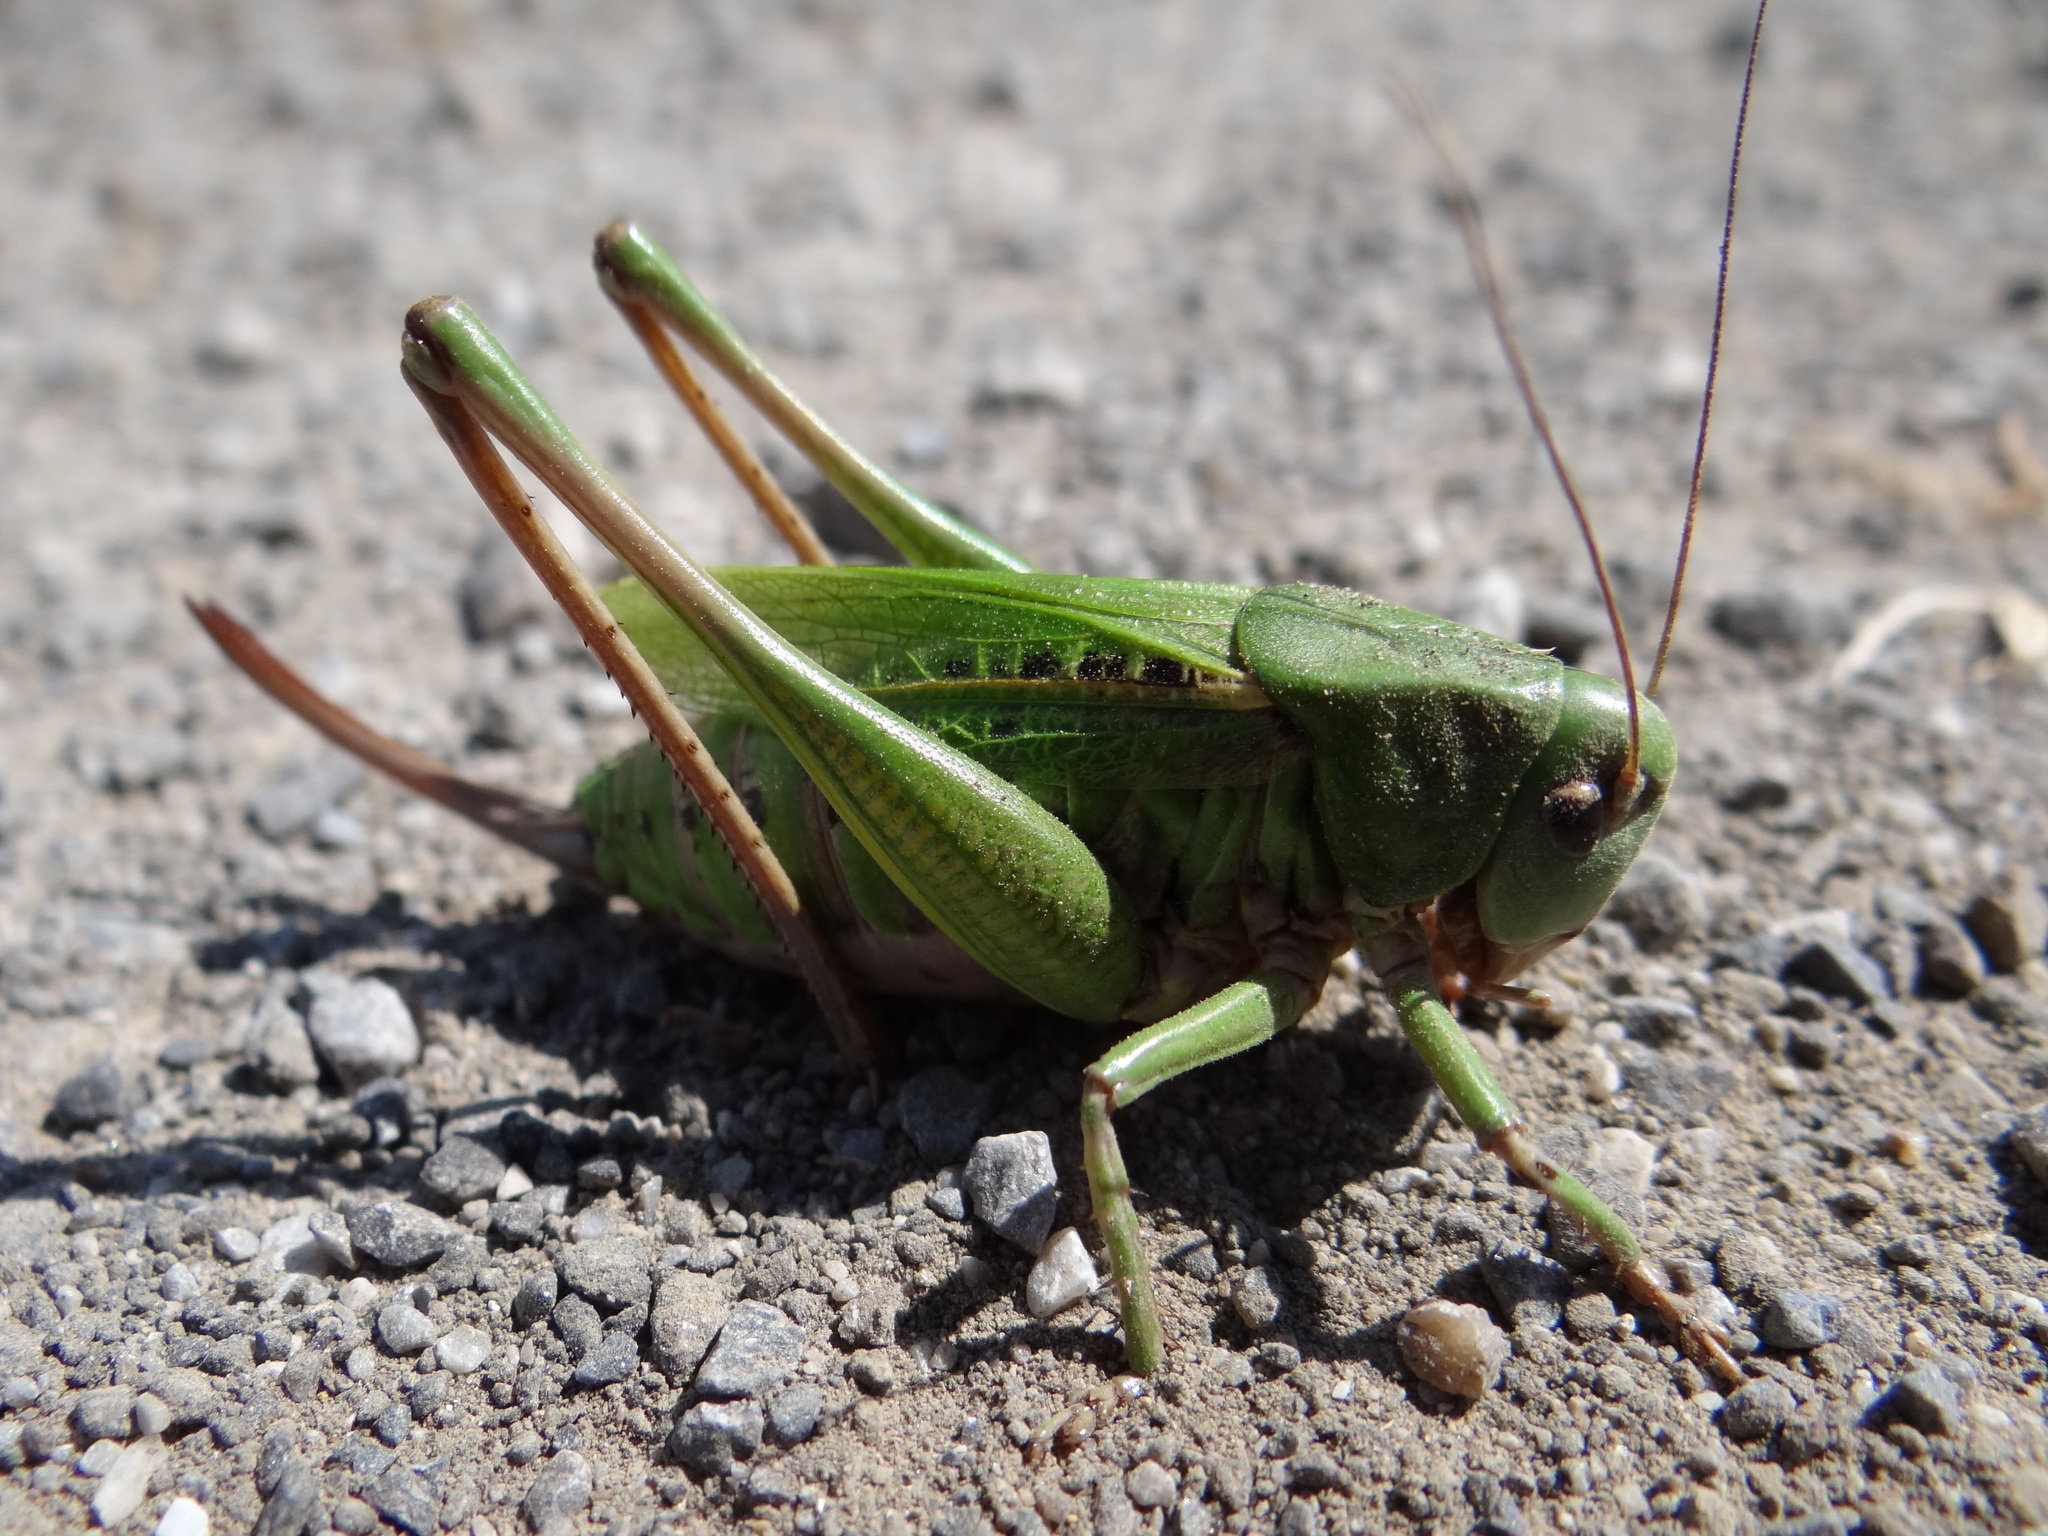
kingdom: Animalia
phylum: Arthropoda
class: Insecta
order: Orthoptera
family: Tettigoniidae
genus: Decticus
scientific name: Decticus verrucivorus
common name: Wart-biter
